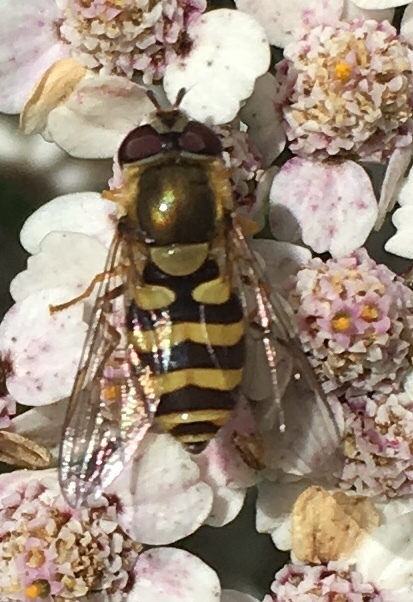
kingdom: Animalia
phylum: Arthropoda
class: Insecta
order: Diptera
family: Syrphidae
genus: Syrphus
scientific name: Syrphus
